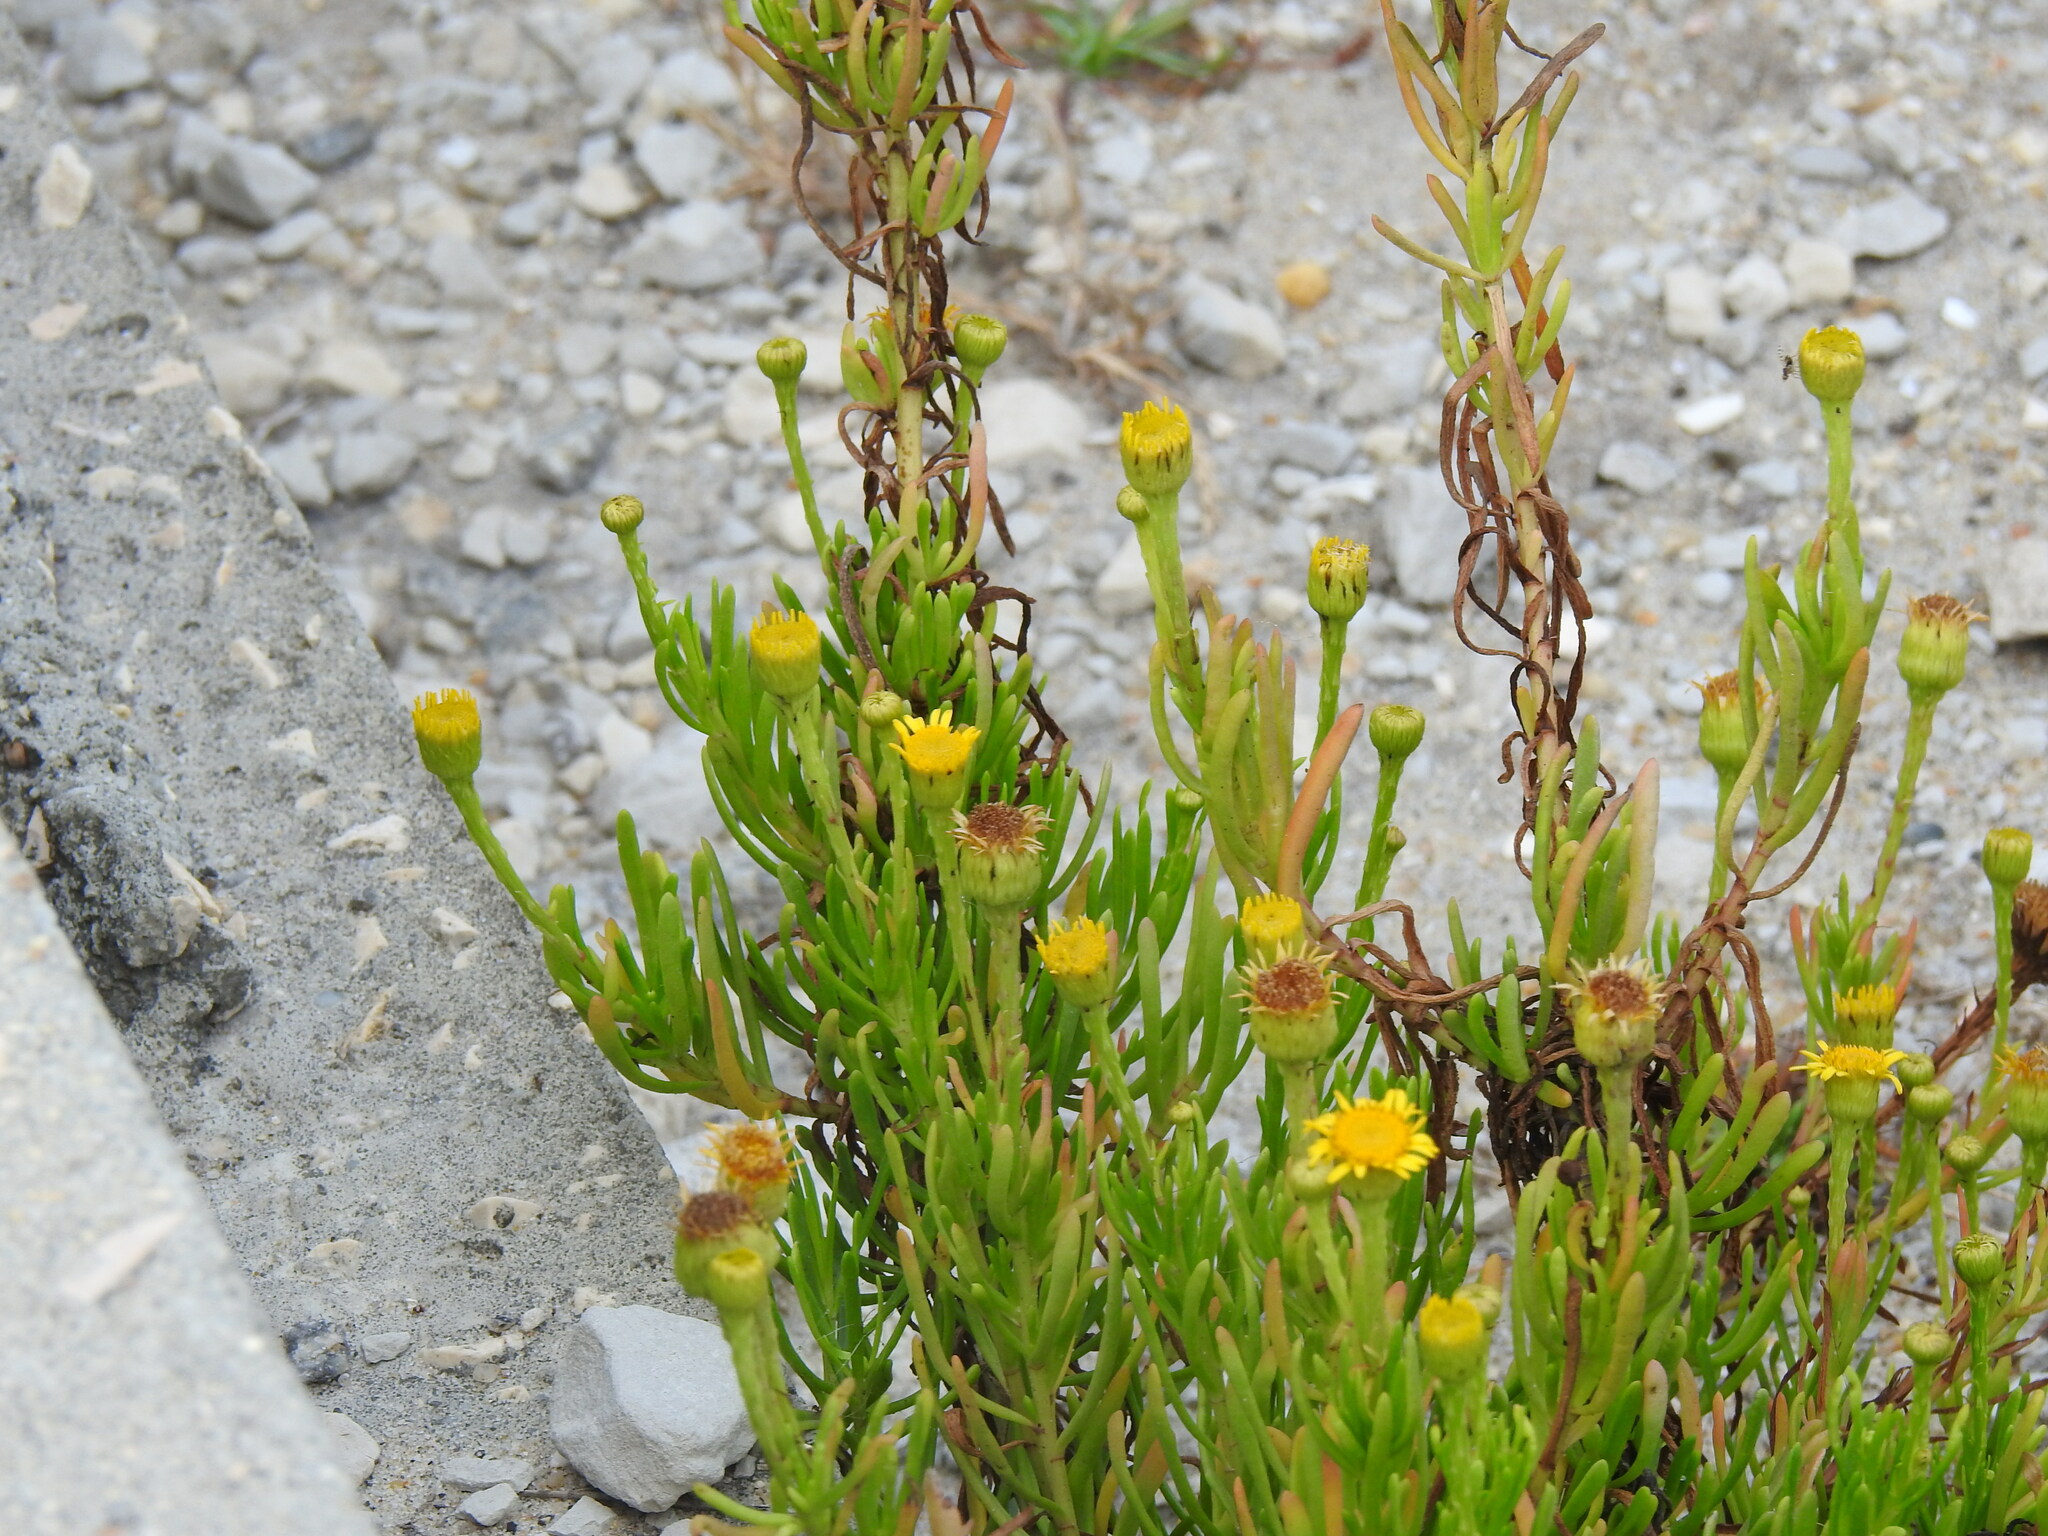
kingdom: Plantae
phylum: Tracheophyta
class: Magnoliopsida
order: Asterales
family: Asteraceae
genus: Limbarda
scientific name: Limbarda crithmoides
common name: Golden samphire
